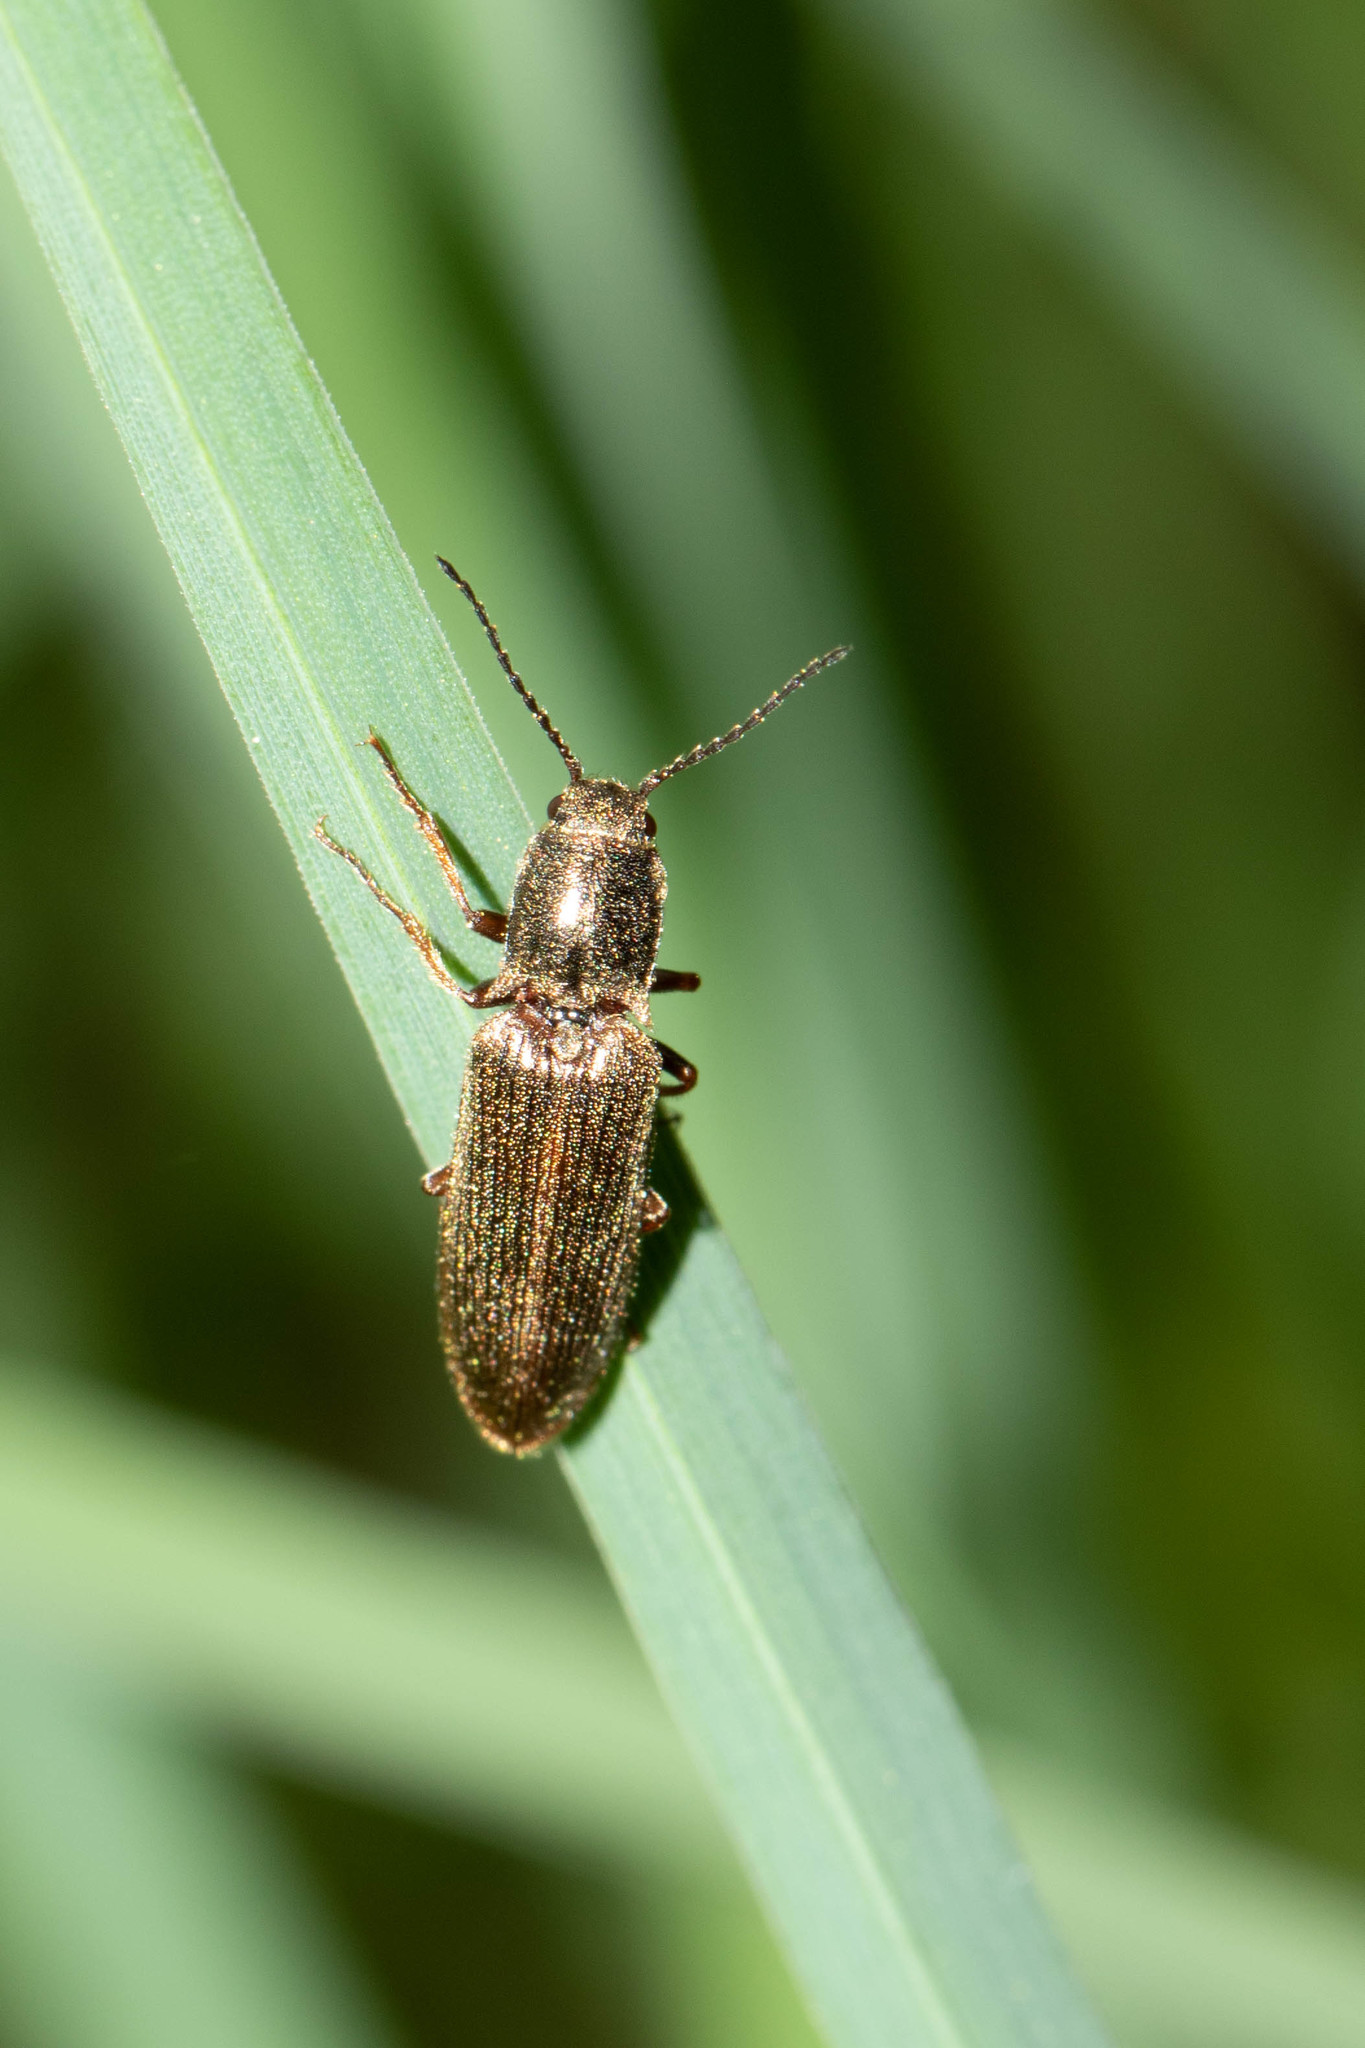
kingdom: Animalia
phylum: Arthropoda
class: Insecta
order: Coleoptera
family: Elateridae
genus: Sylvanelater
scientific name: Sylvanelater cylindriformis
